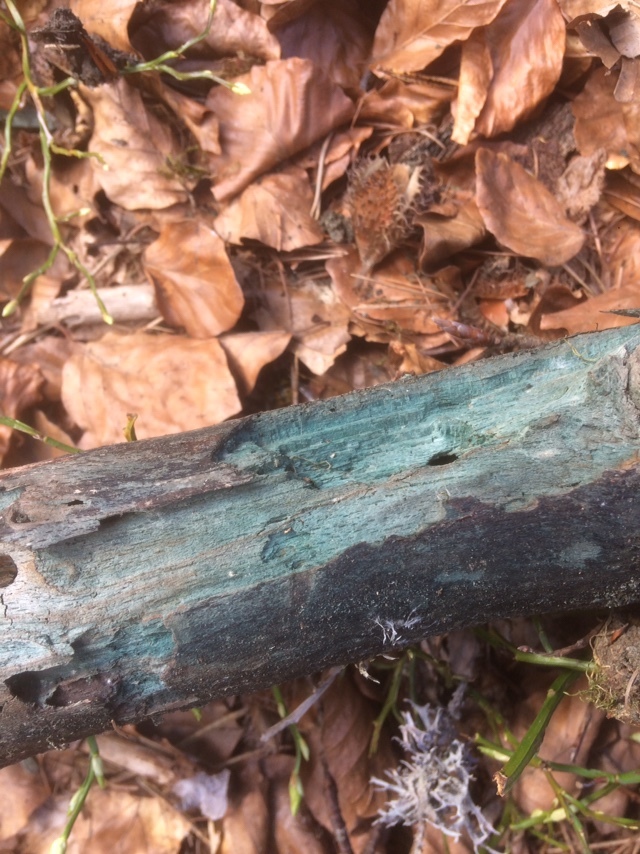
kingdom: Fungi
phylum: Ascomycota
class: Leotiomycetes
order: Helotiales
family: Chlorociboriaceae
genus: Chlorociboria
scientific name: Chlorociboria
